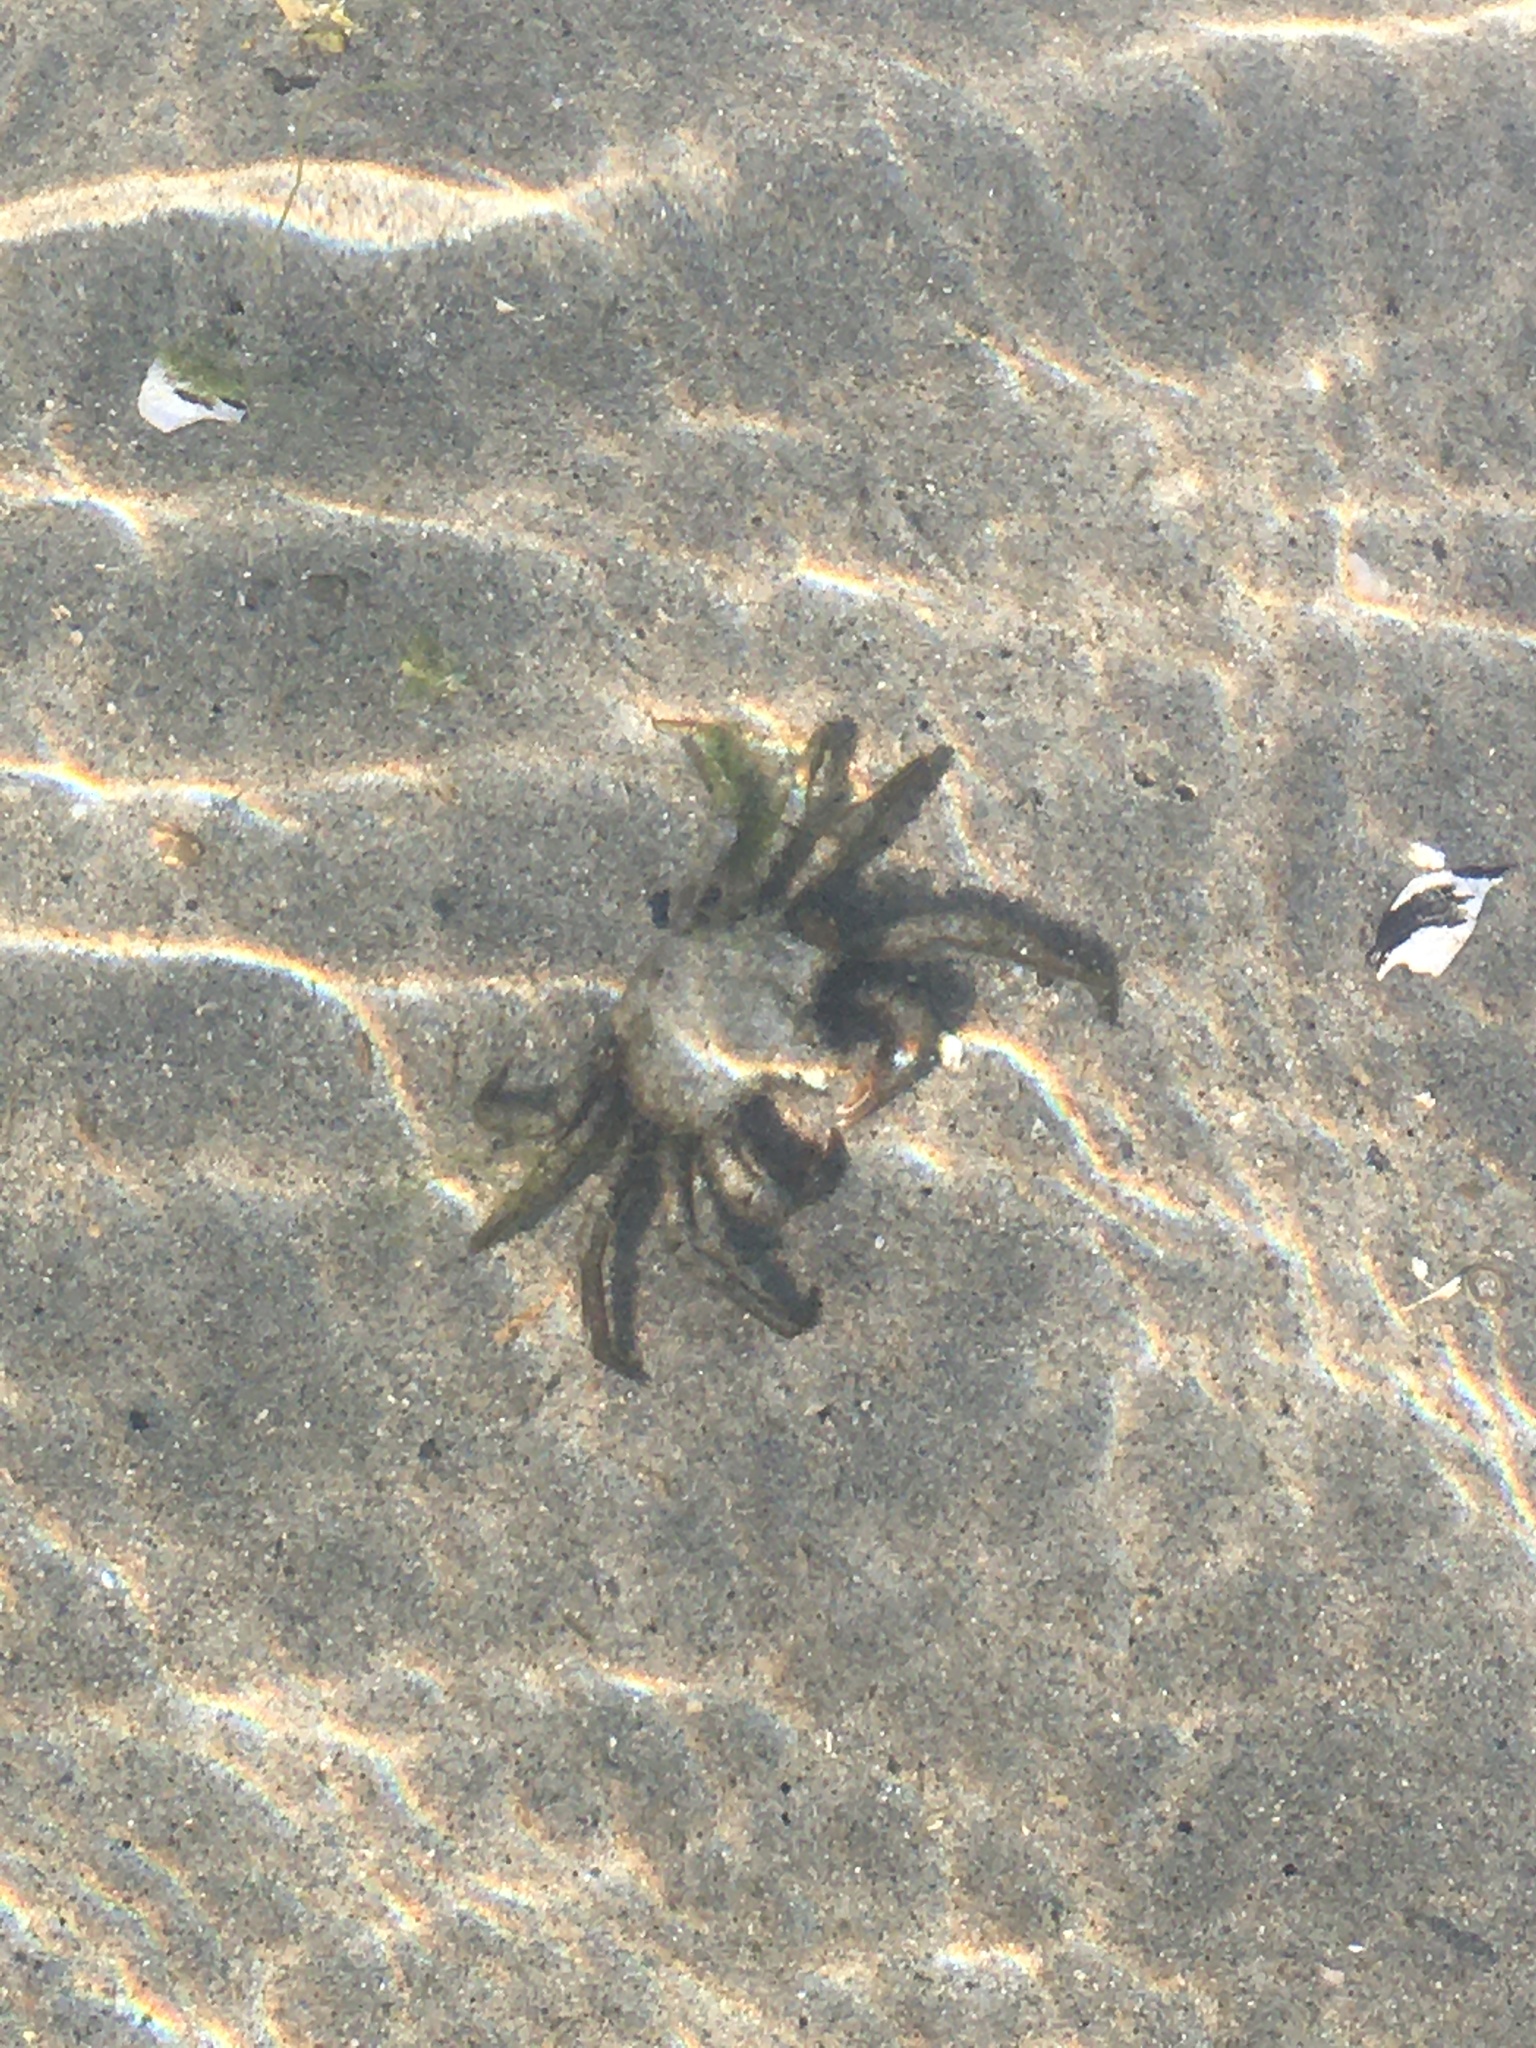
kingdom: Animalia
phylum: Arthropoda
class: Malacostraca
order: Decapoda
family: Epialtidae
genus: Pugettia
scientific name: Pugettia producta
